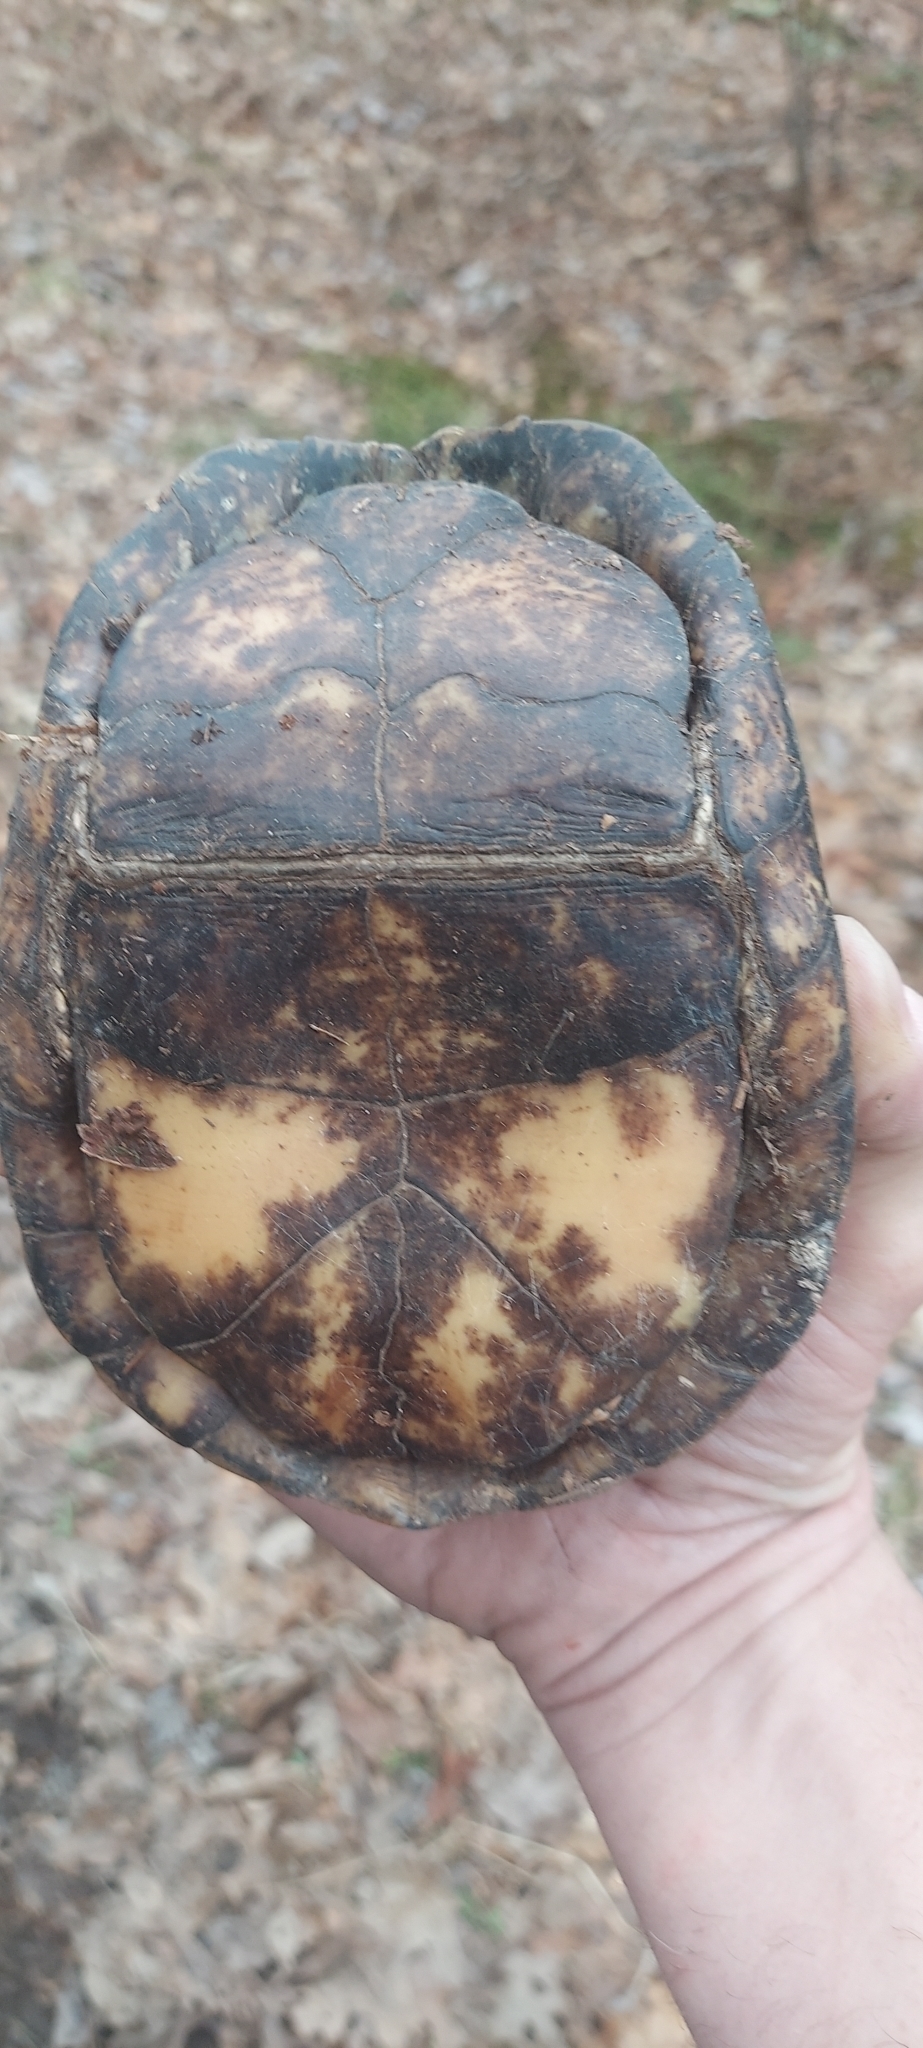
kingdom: Animalia
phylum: Chordata
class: Testudines
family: Emydidae
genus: Terrapene
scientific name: Terrapene carolina
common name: Common box turtle
